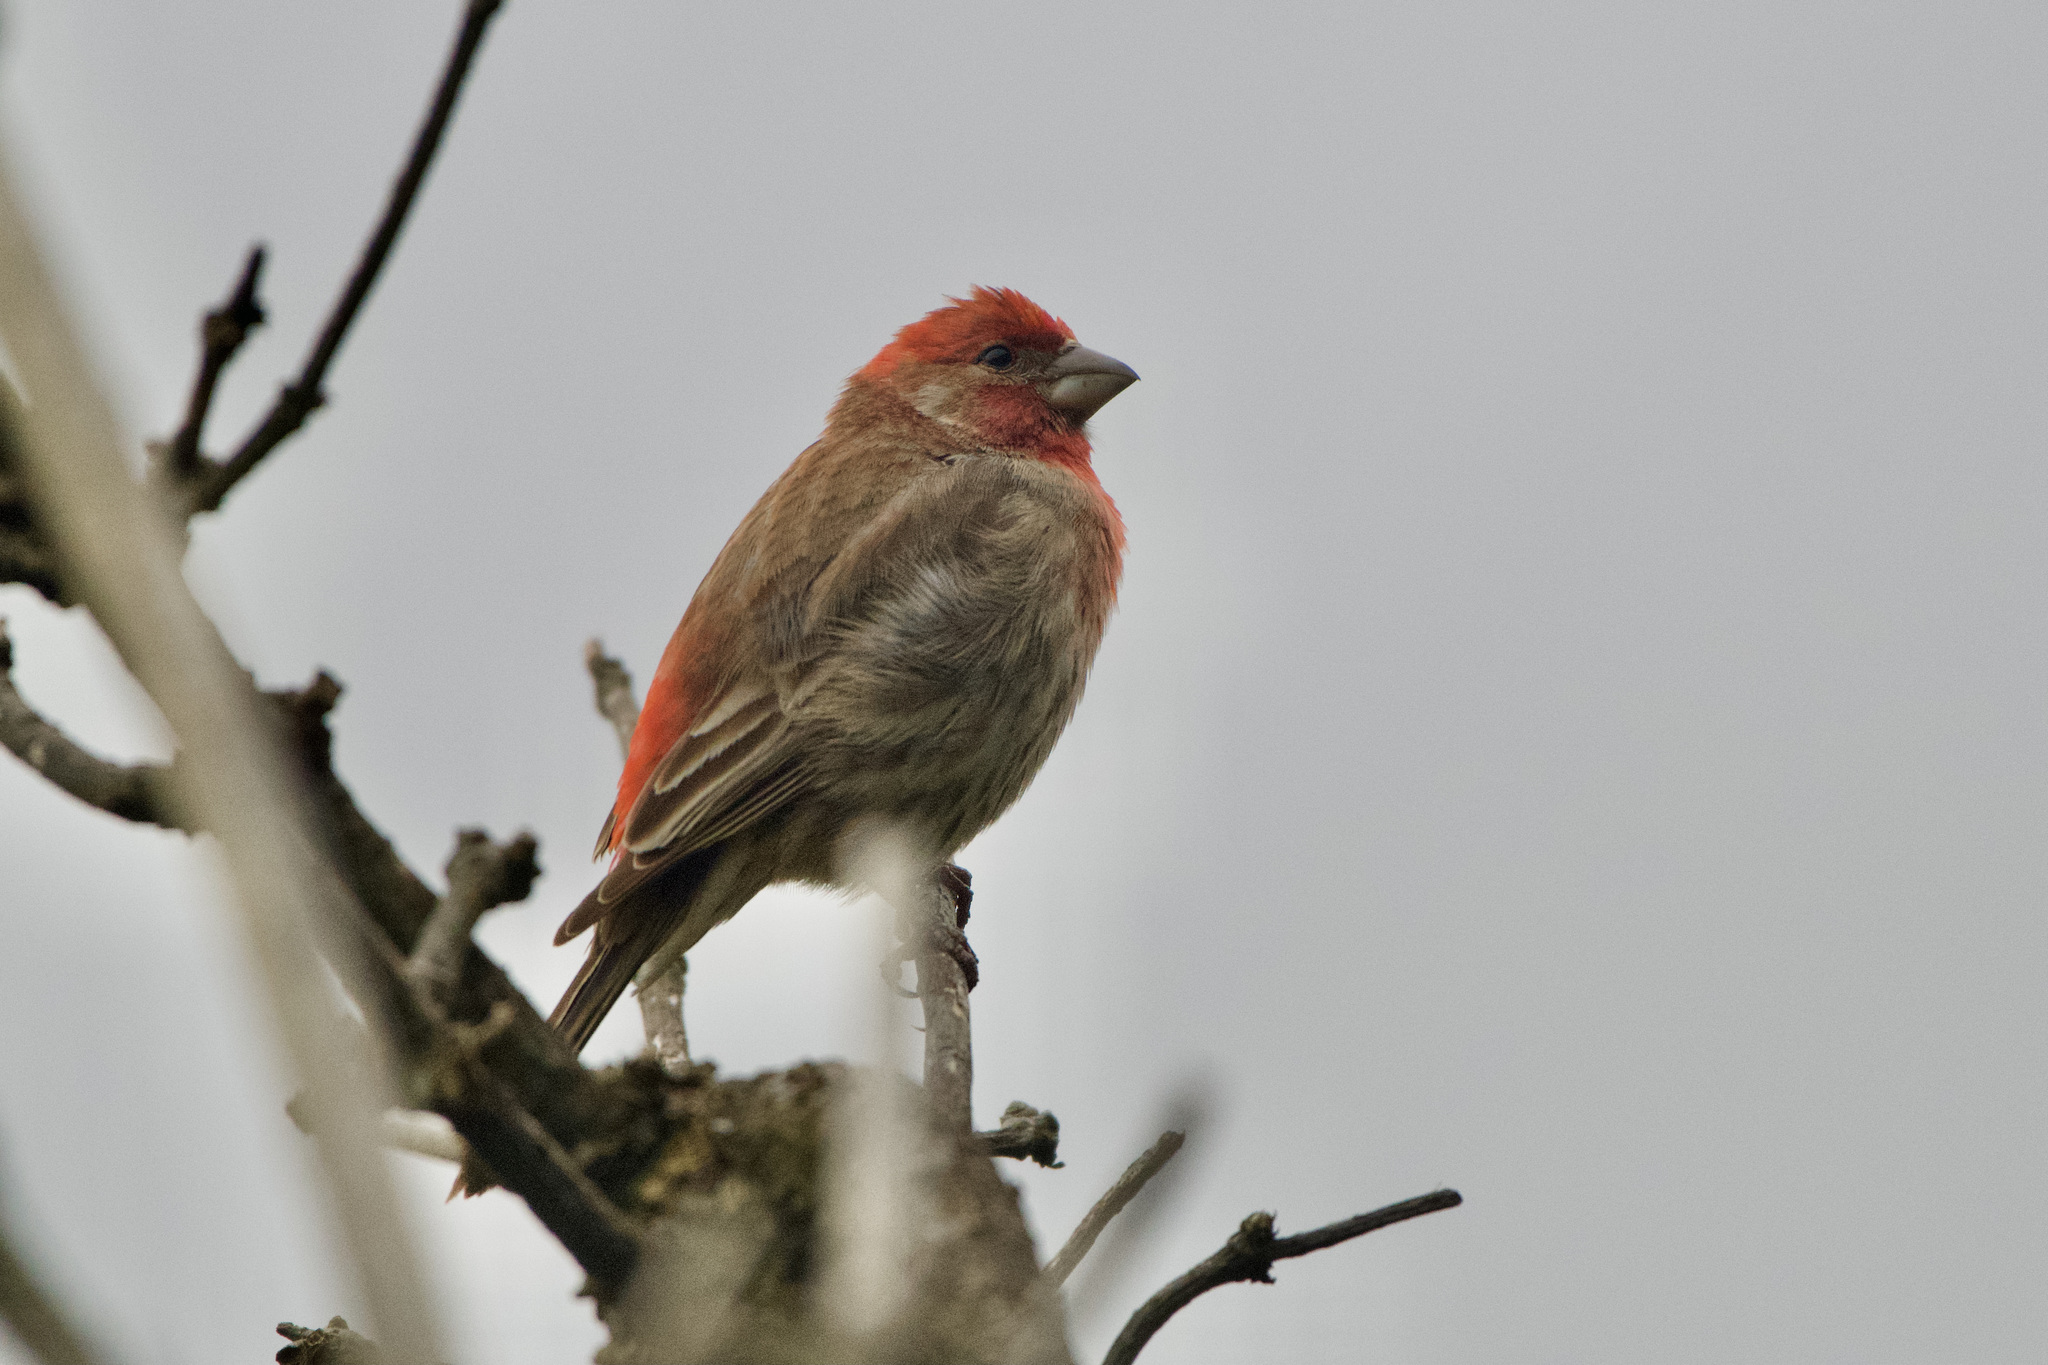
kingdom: Animalia
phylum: Chordata
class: Aves
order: Passeriformes
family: Fringillidae
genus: Haemorhous
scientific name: Haemorhous mexicanus
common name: House finch
